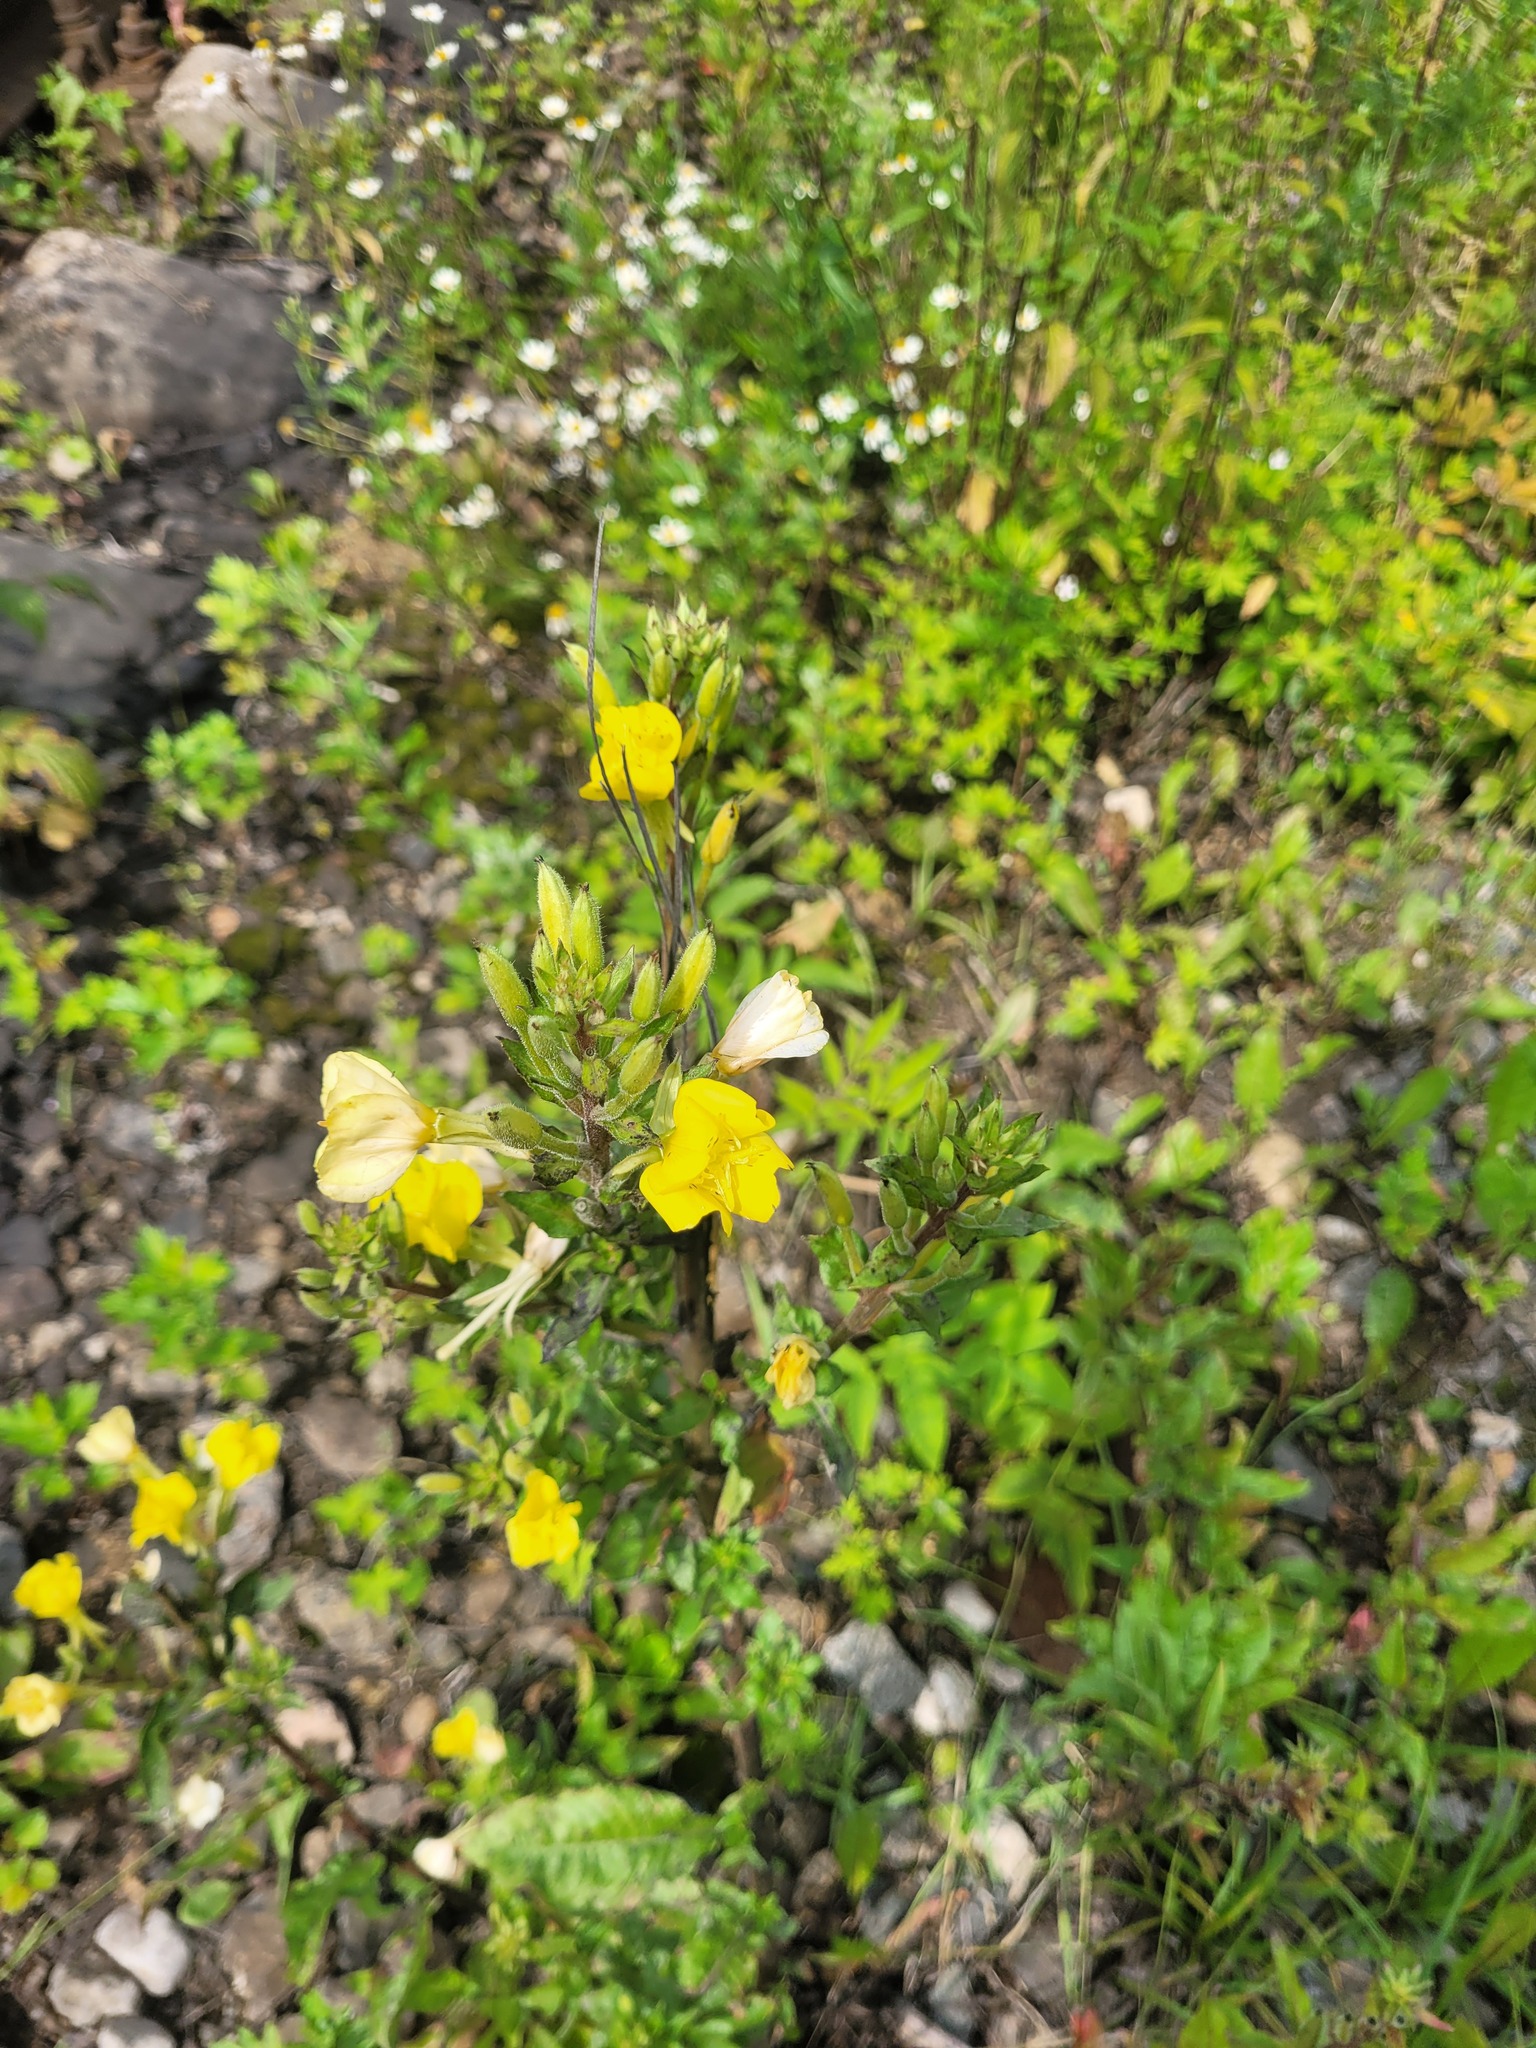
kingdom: Plantae
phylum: Tracheophyta
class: Magnoliopsida
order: Myrtales
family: Onagraceae
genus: Oenothera
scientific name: Oenothera rubricaulis
